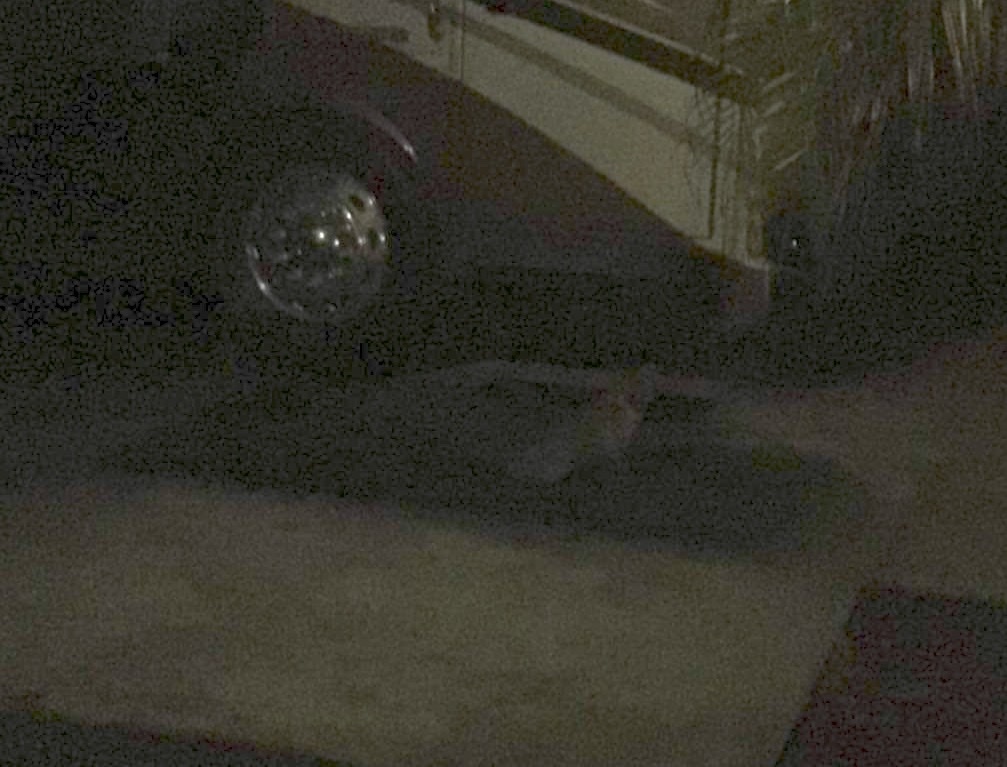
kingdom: Animalia
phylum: Chordata
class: Mammalia
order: Carnivora
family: Canidae
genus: Urocyon
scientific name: Urocyon cinereoargenteus
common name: Gray fox
